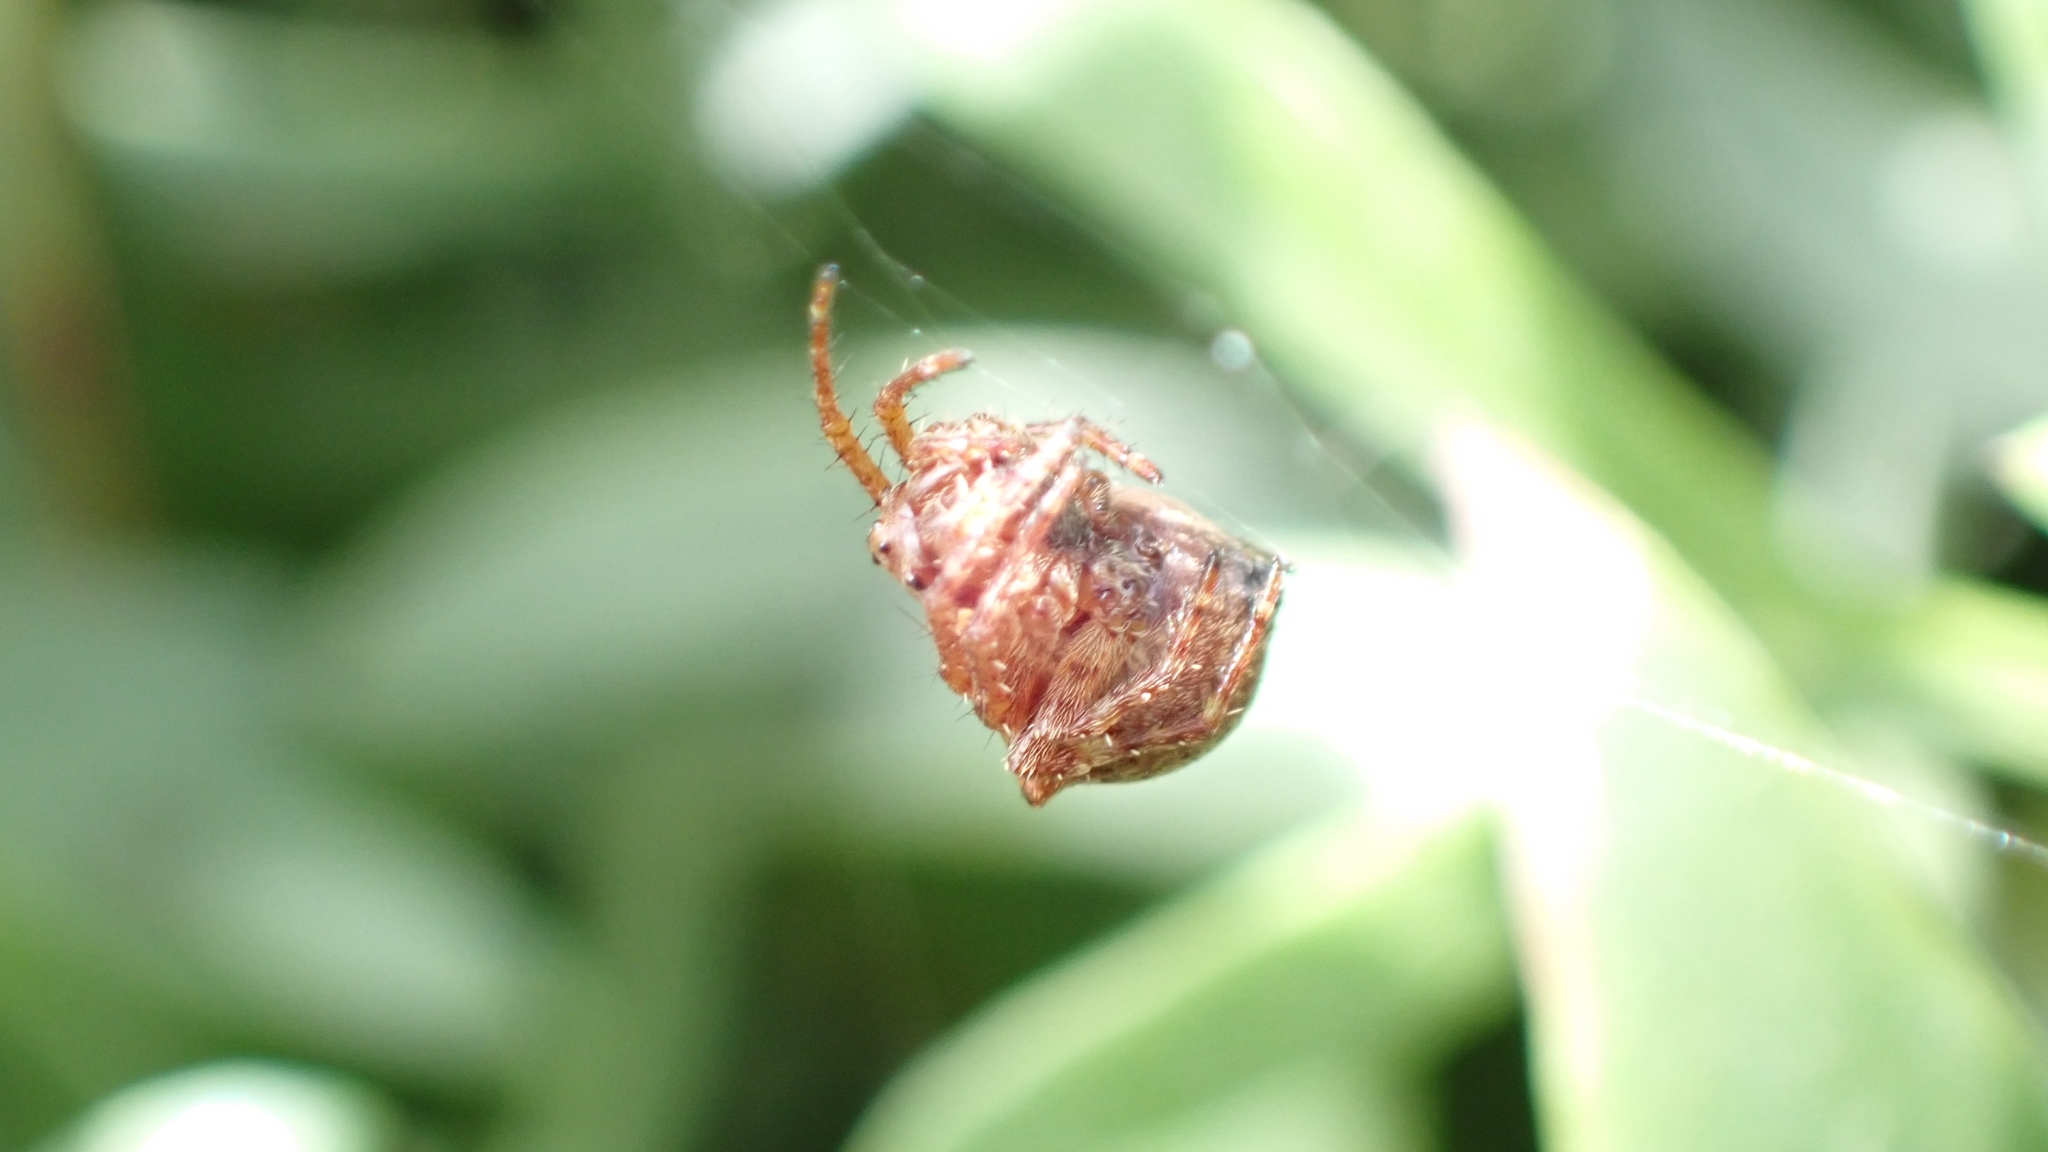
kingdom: Animalia
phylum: Arthropoda
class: Arachnida
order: Araneae
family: Araneidae
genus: Gibbaranea
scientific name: Gibbaranea bituberculata
